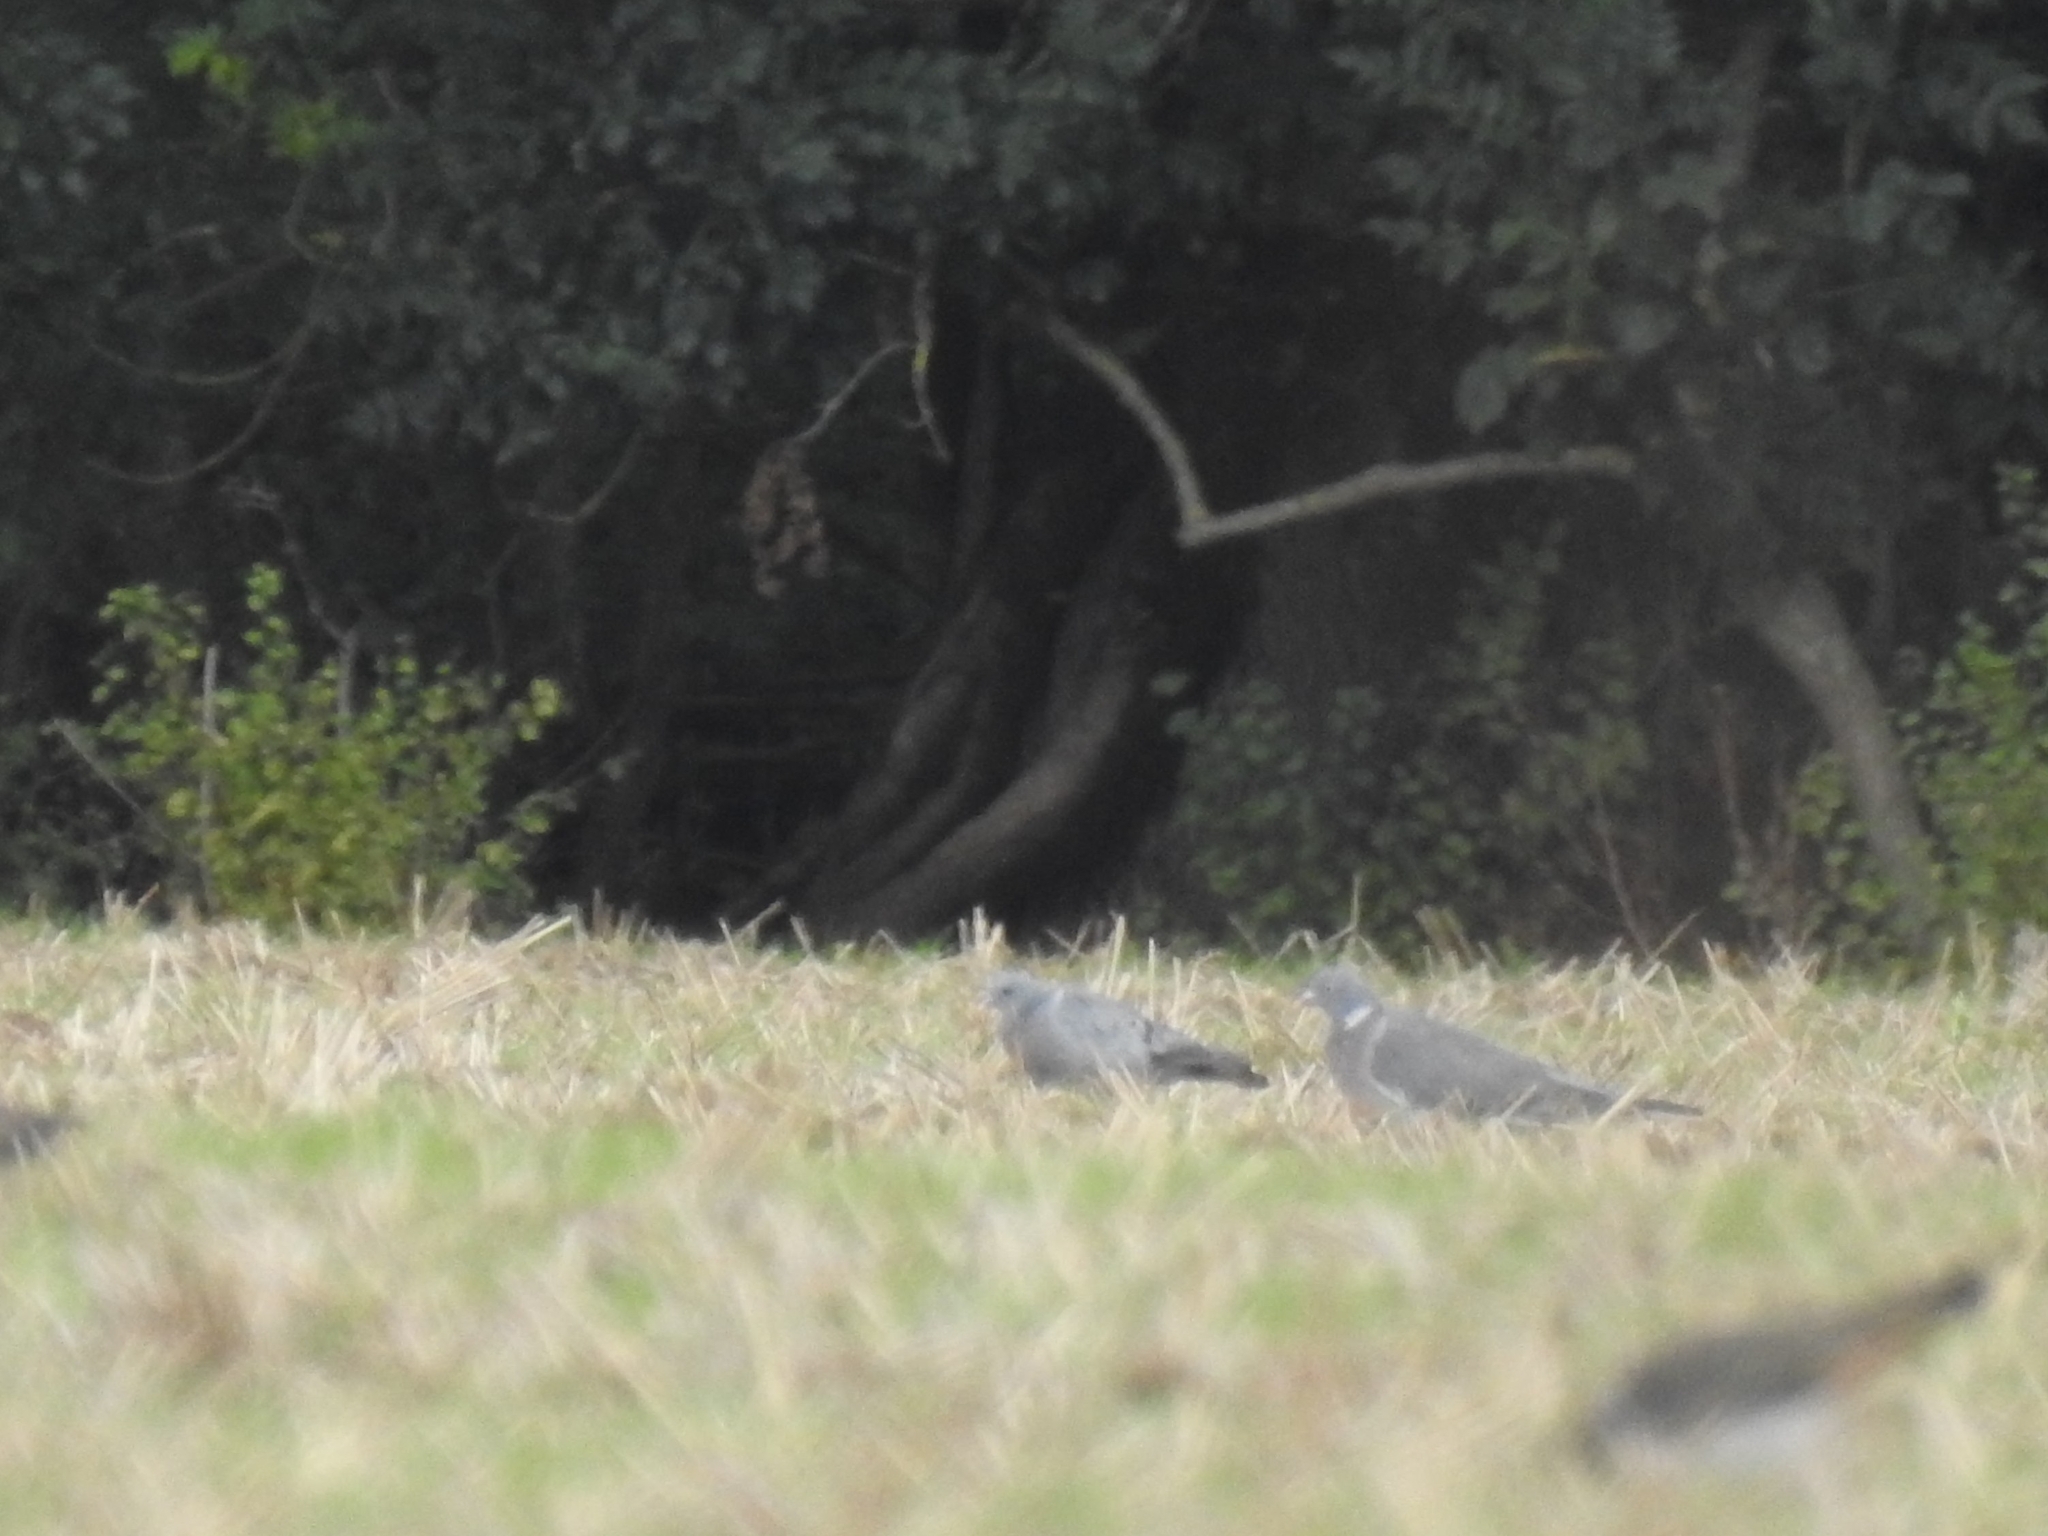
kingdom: Animalia
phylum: Chordata
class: Aves
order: Columbiformes
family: Columbidae
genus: Columba
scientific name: Columba oenas
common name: Stock dove
